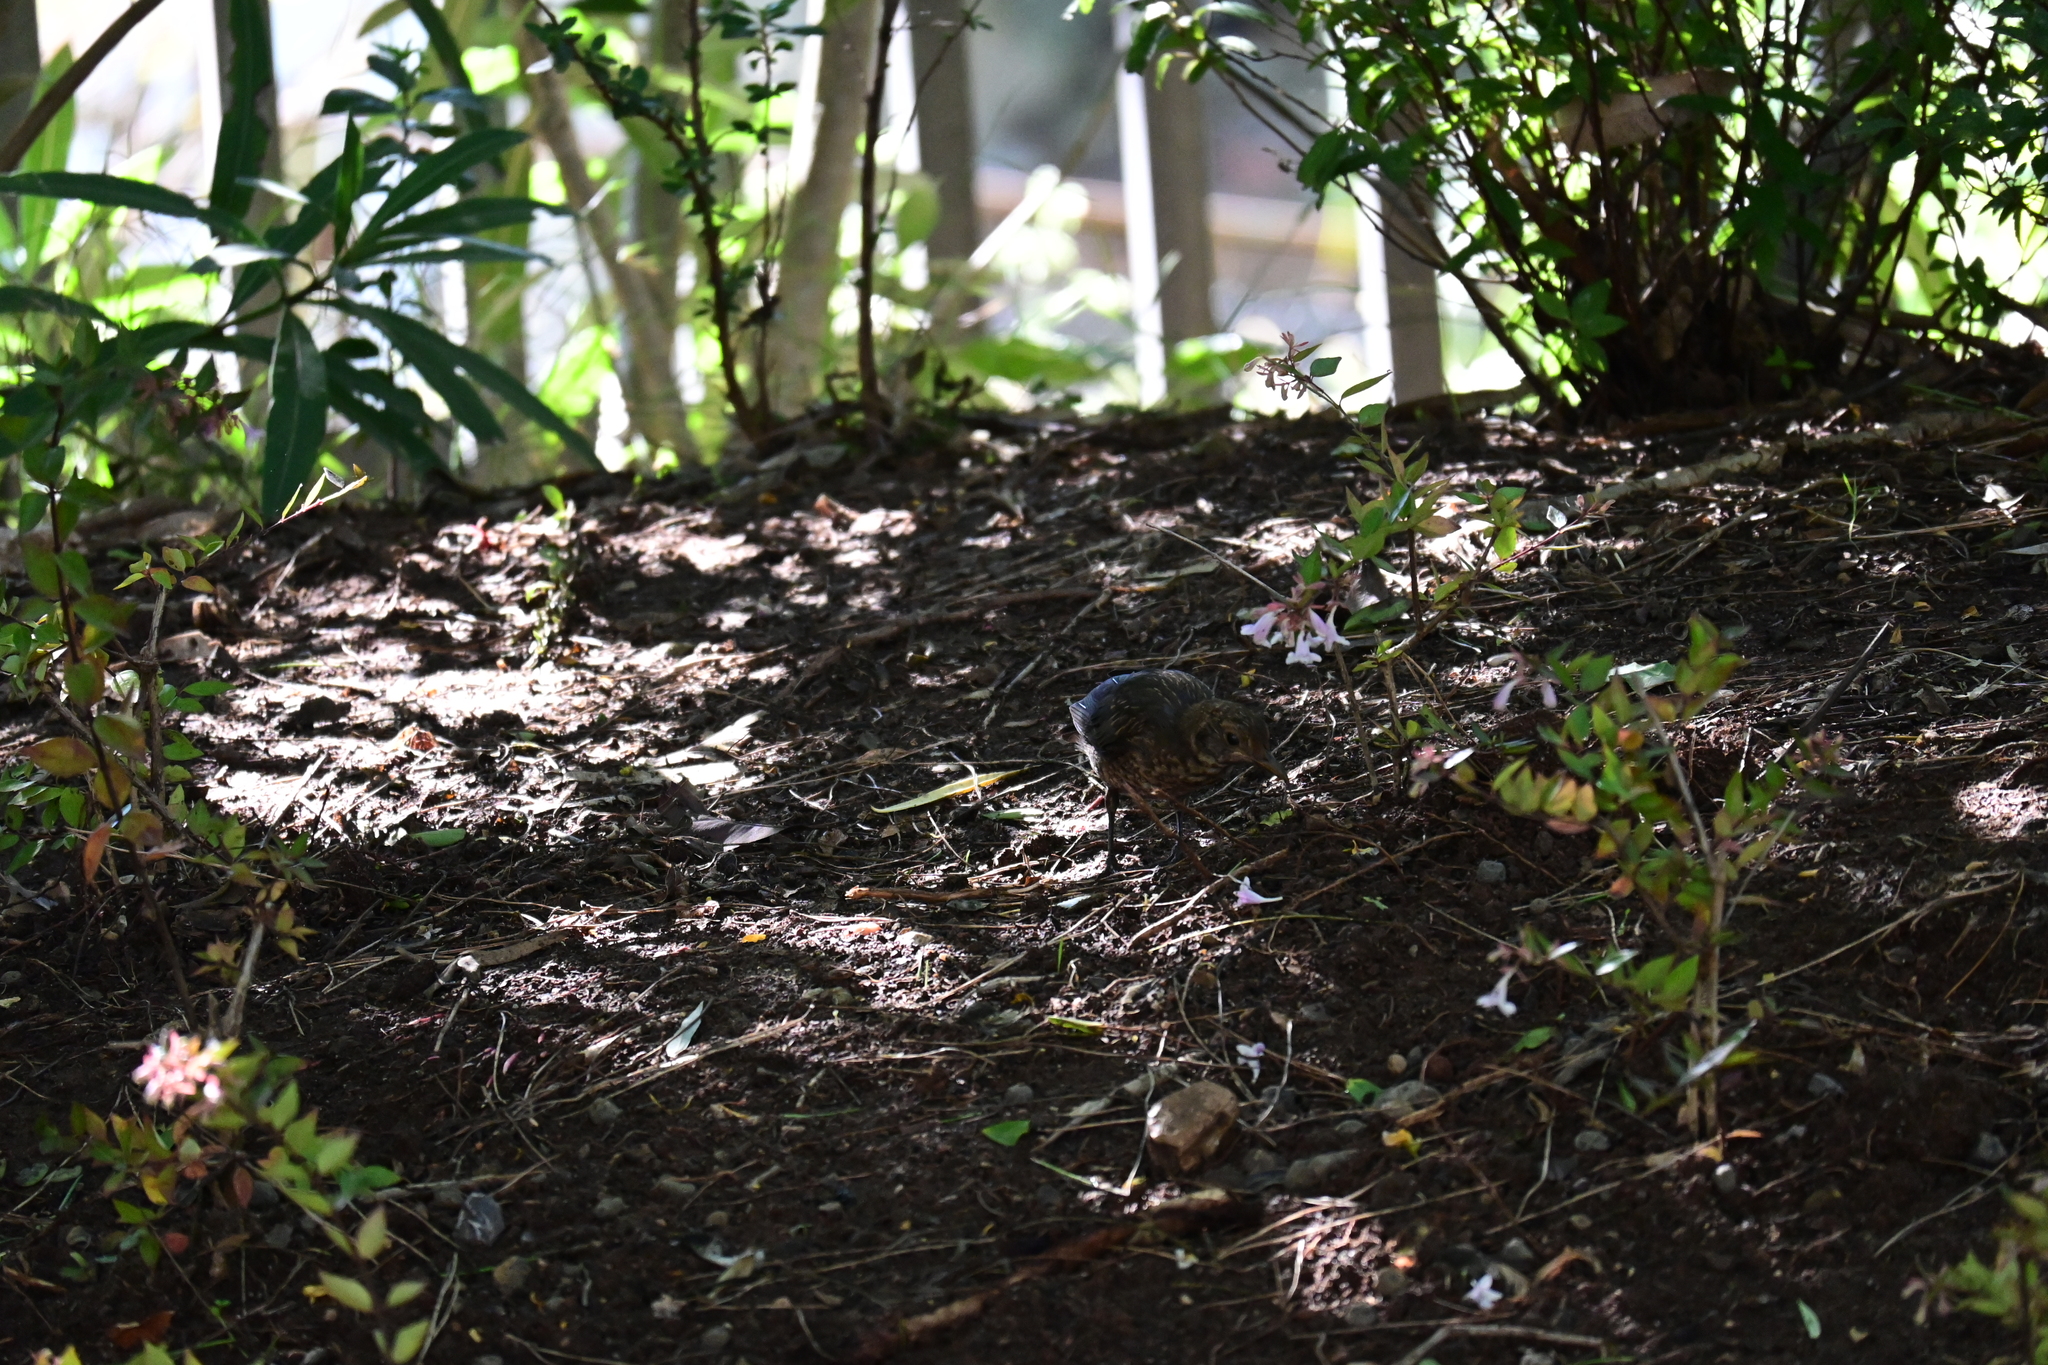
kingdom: Animalia
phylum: Chordata
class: Aves
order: Passeriformes
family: Turdidae
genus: Turdus
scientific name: Turdus merula
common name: Common blackbird
